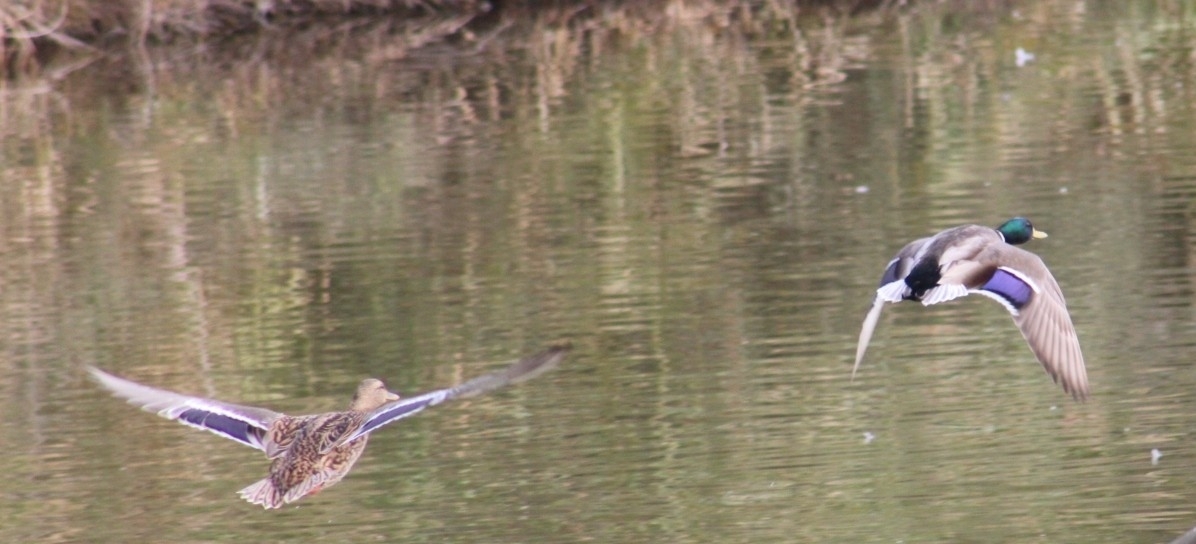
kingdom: Animalia
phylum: Chordata
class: Aves
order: Anseriformes
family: Anatidae
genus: Anas
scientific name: Anas platyrhynchos
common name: Mallard
